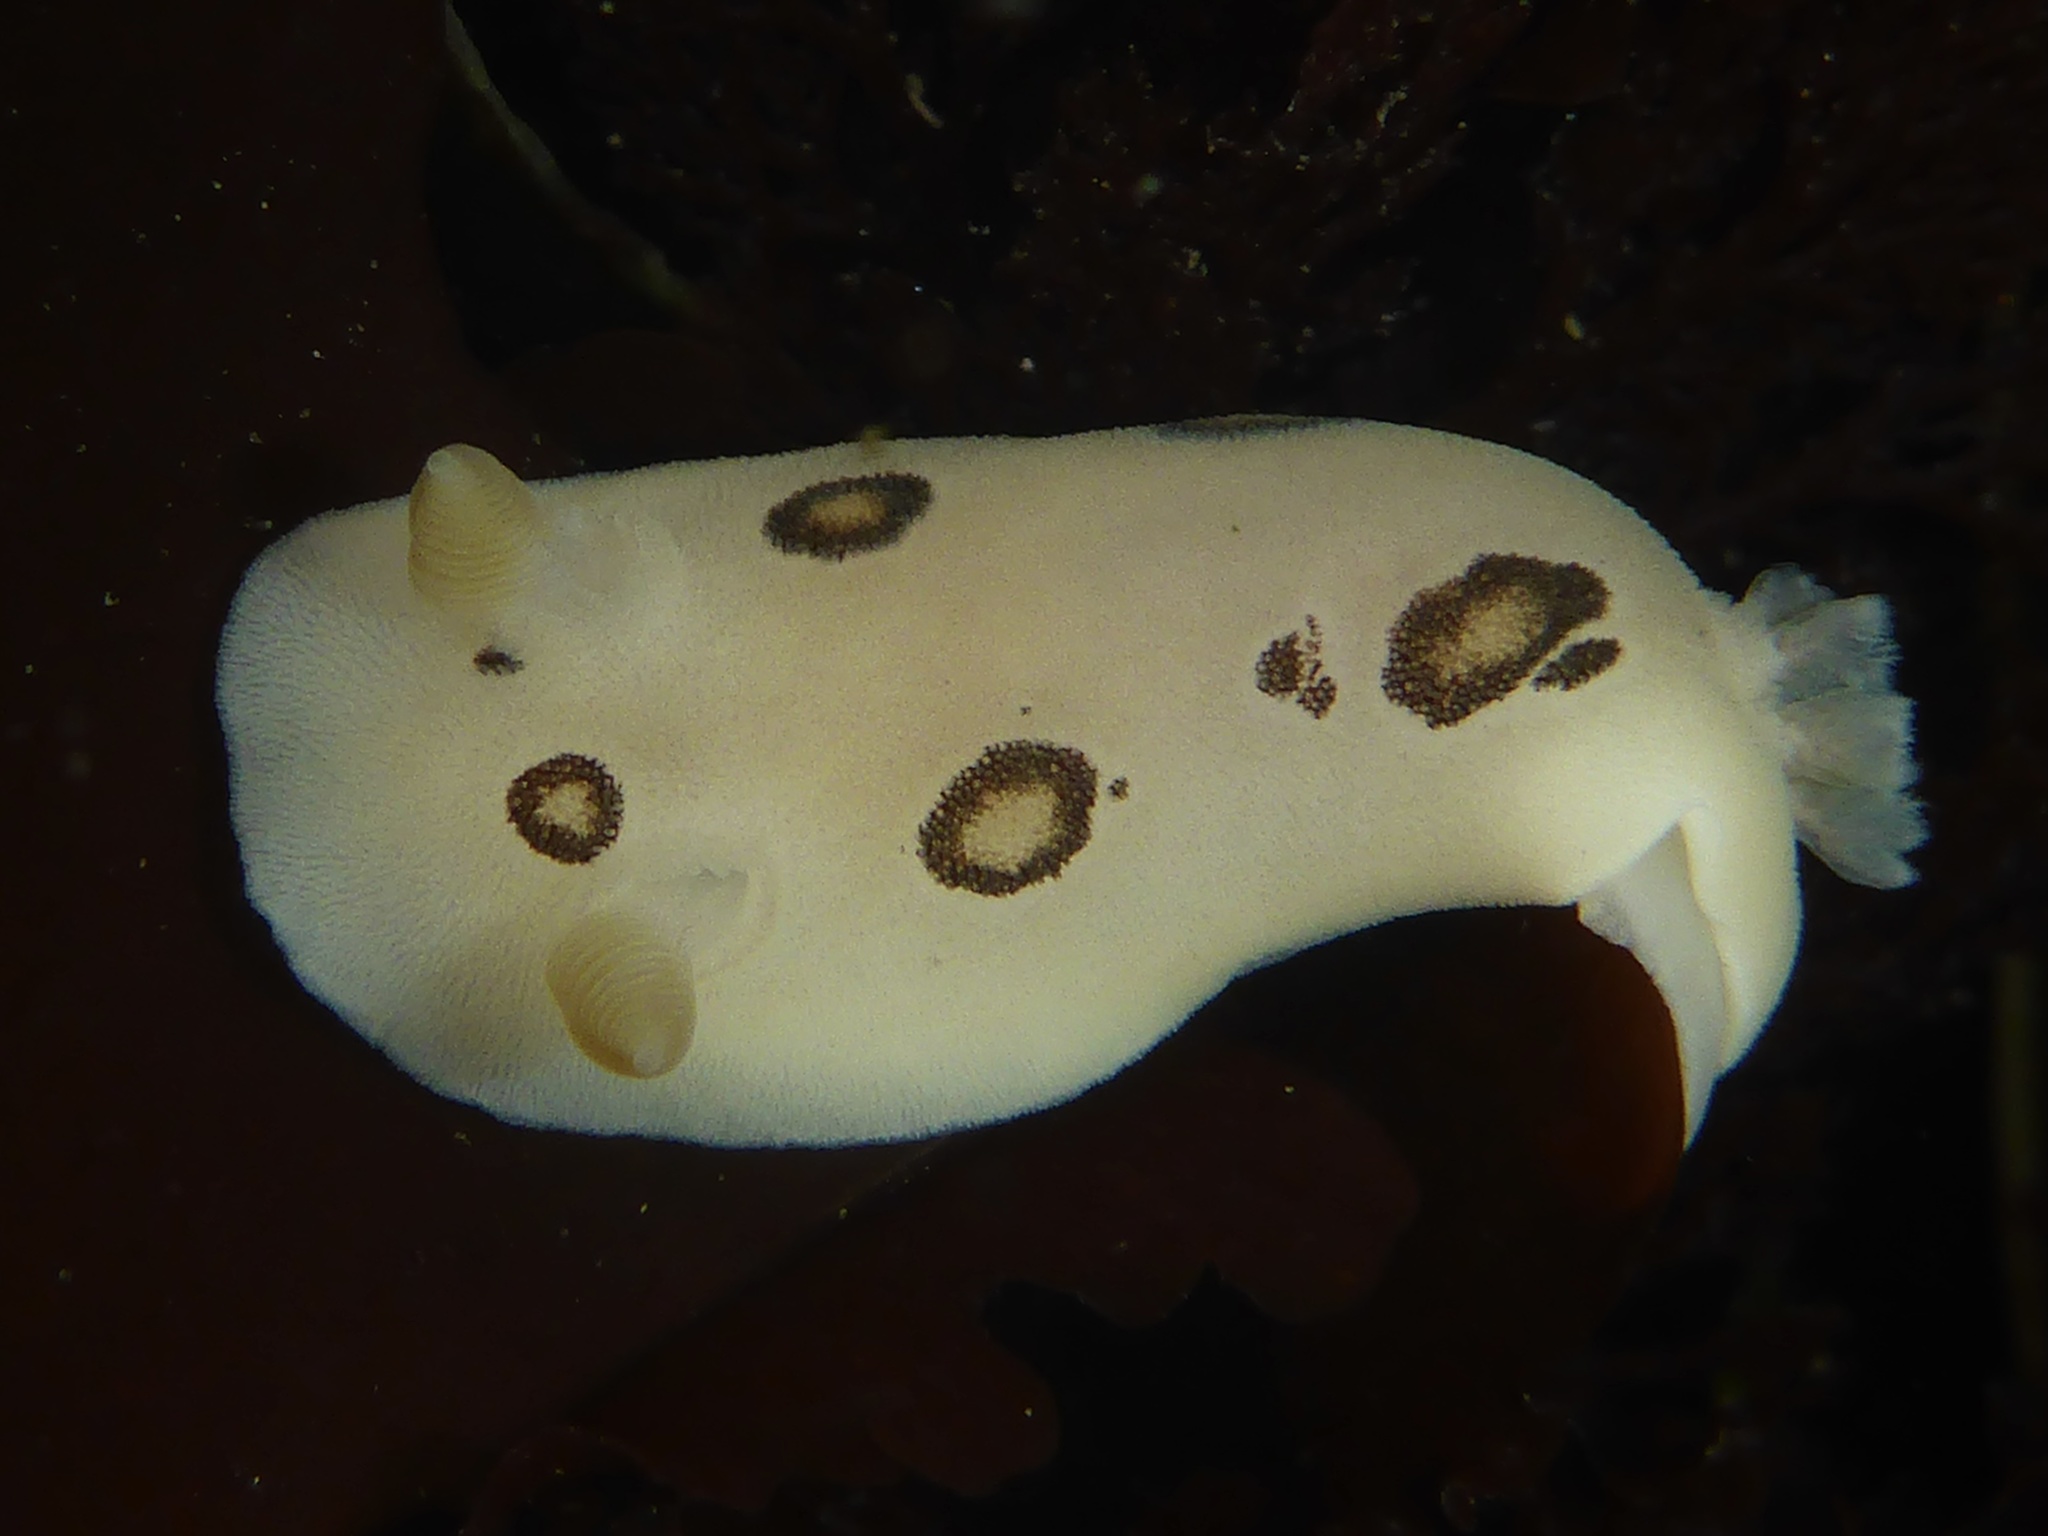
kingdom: Animalia
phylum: Mollusca
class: Gastropoda
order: Nudibranchia
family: Discodorididae
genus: Diaulula
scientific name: Diaulula sandiegensis
